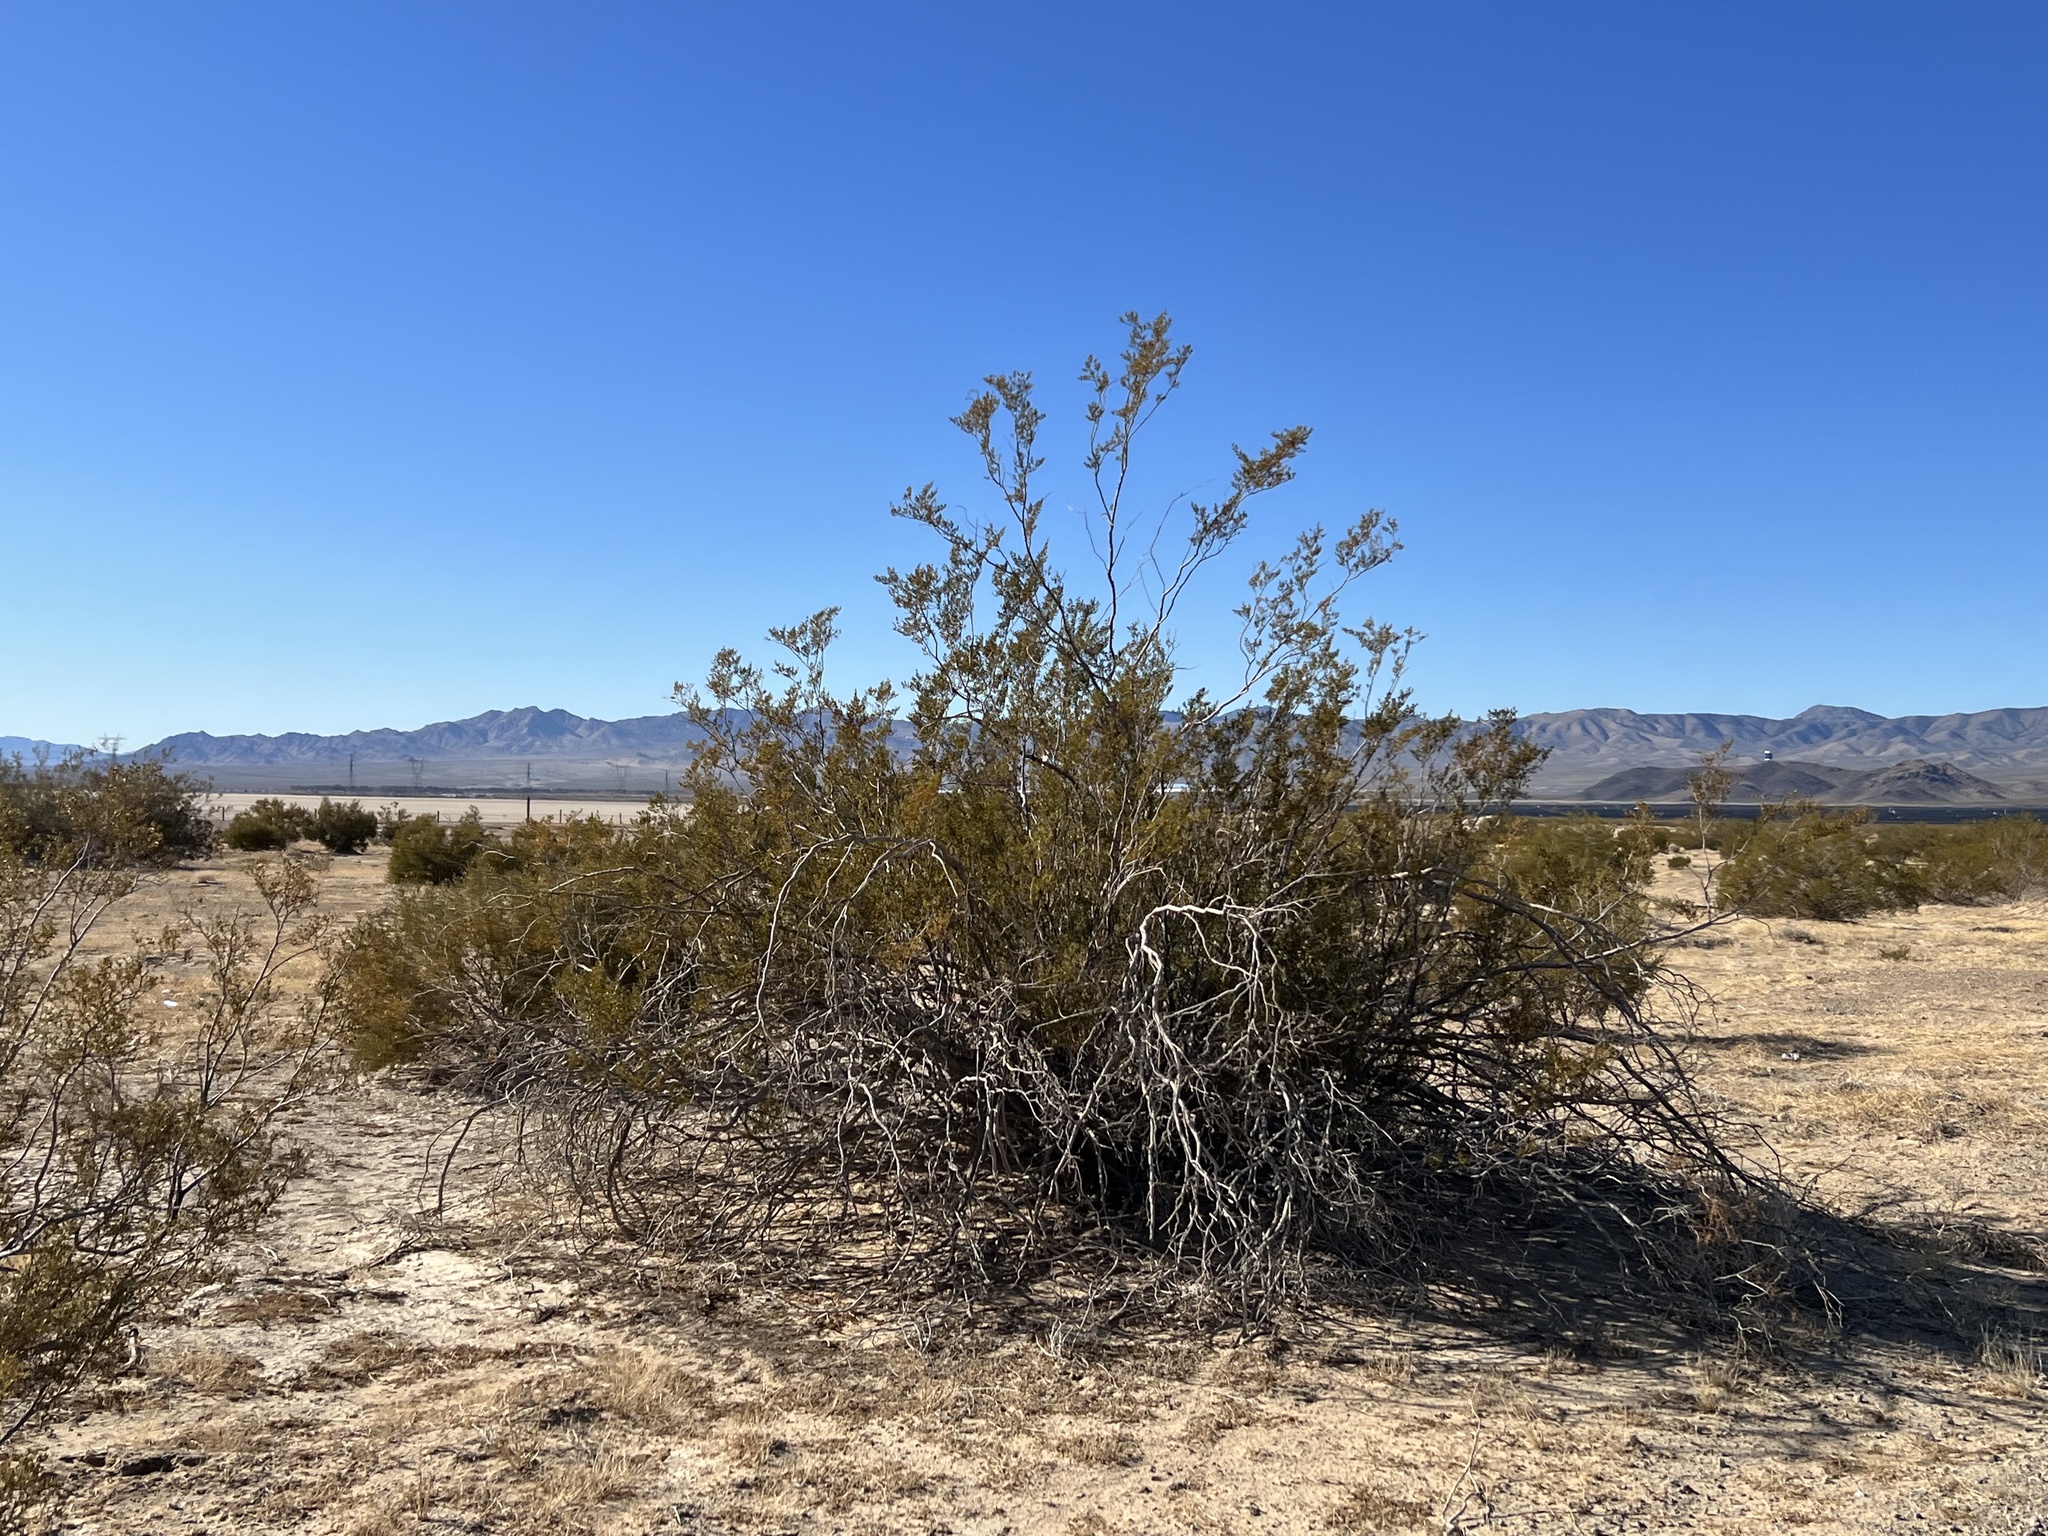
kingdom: Plantae
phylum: Tracheophyta
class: Magnoliopsida
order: Zygophyllales
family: Zygophyllaceae
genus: Larrea
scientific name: Larrea tridentata
